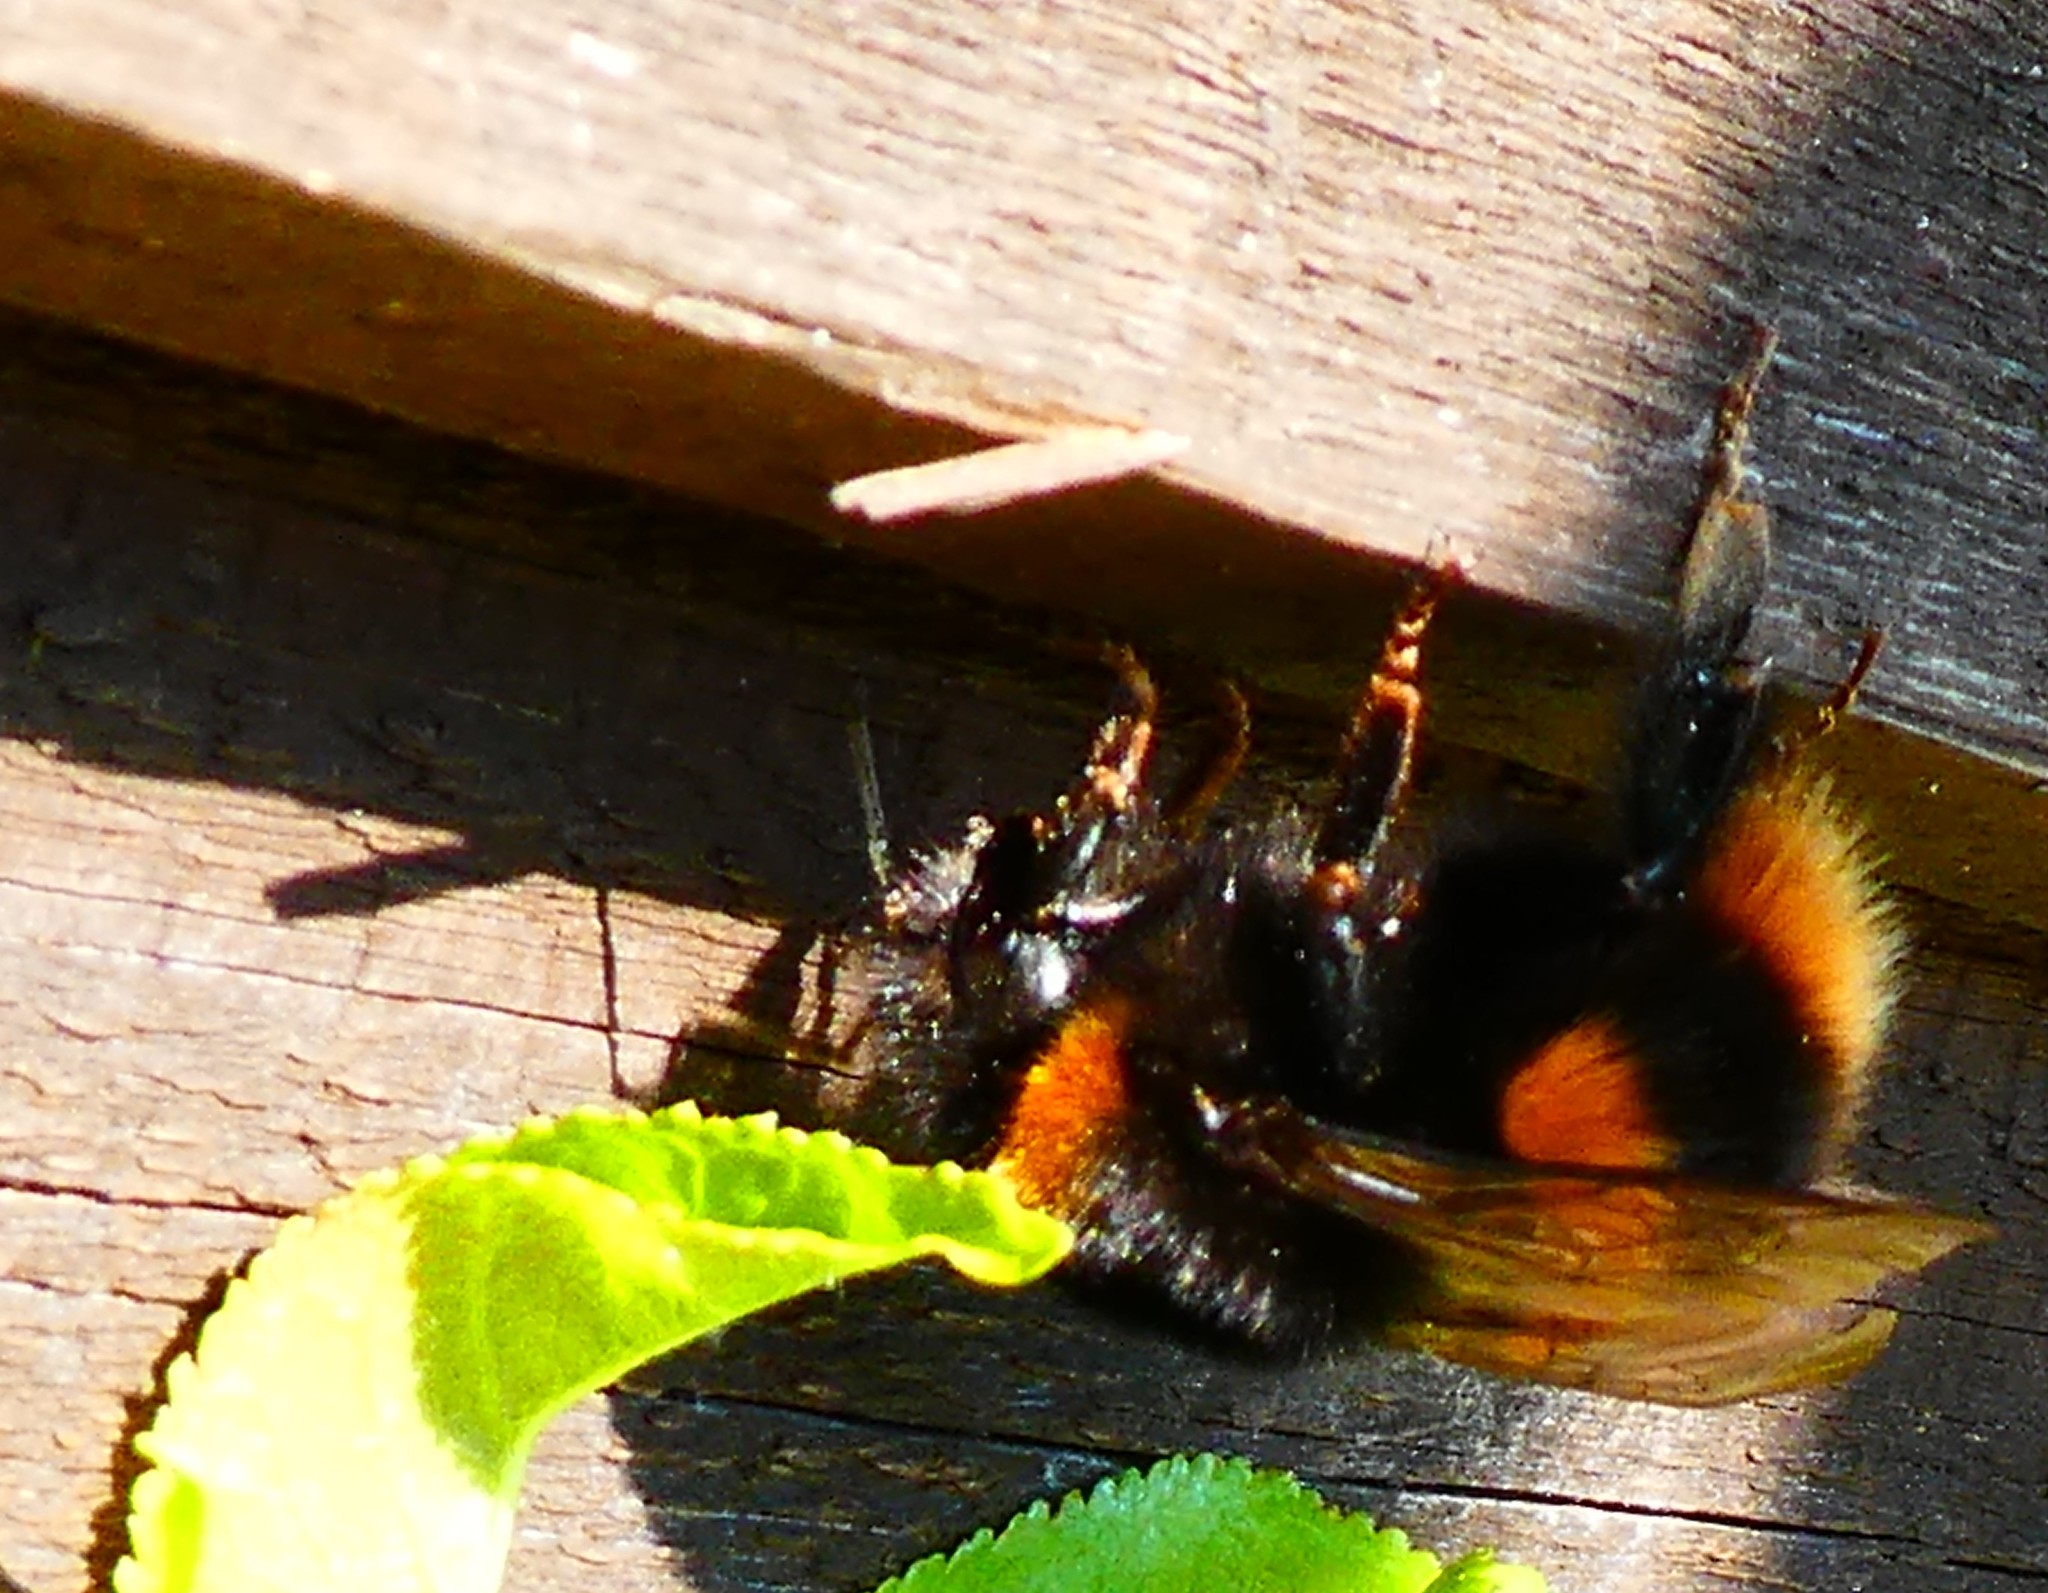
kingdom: Animalia
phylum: Arthropoda
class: Insecta
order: Hymenoptera
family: Apidae
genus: Bombus
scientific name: Bombus terrestris
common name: Buff-tailed bumblebee
